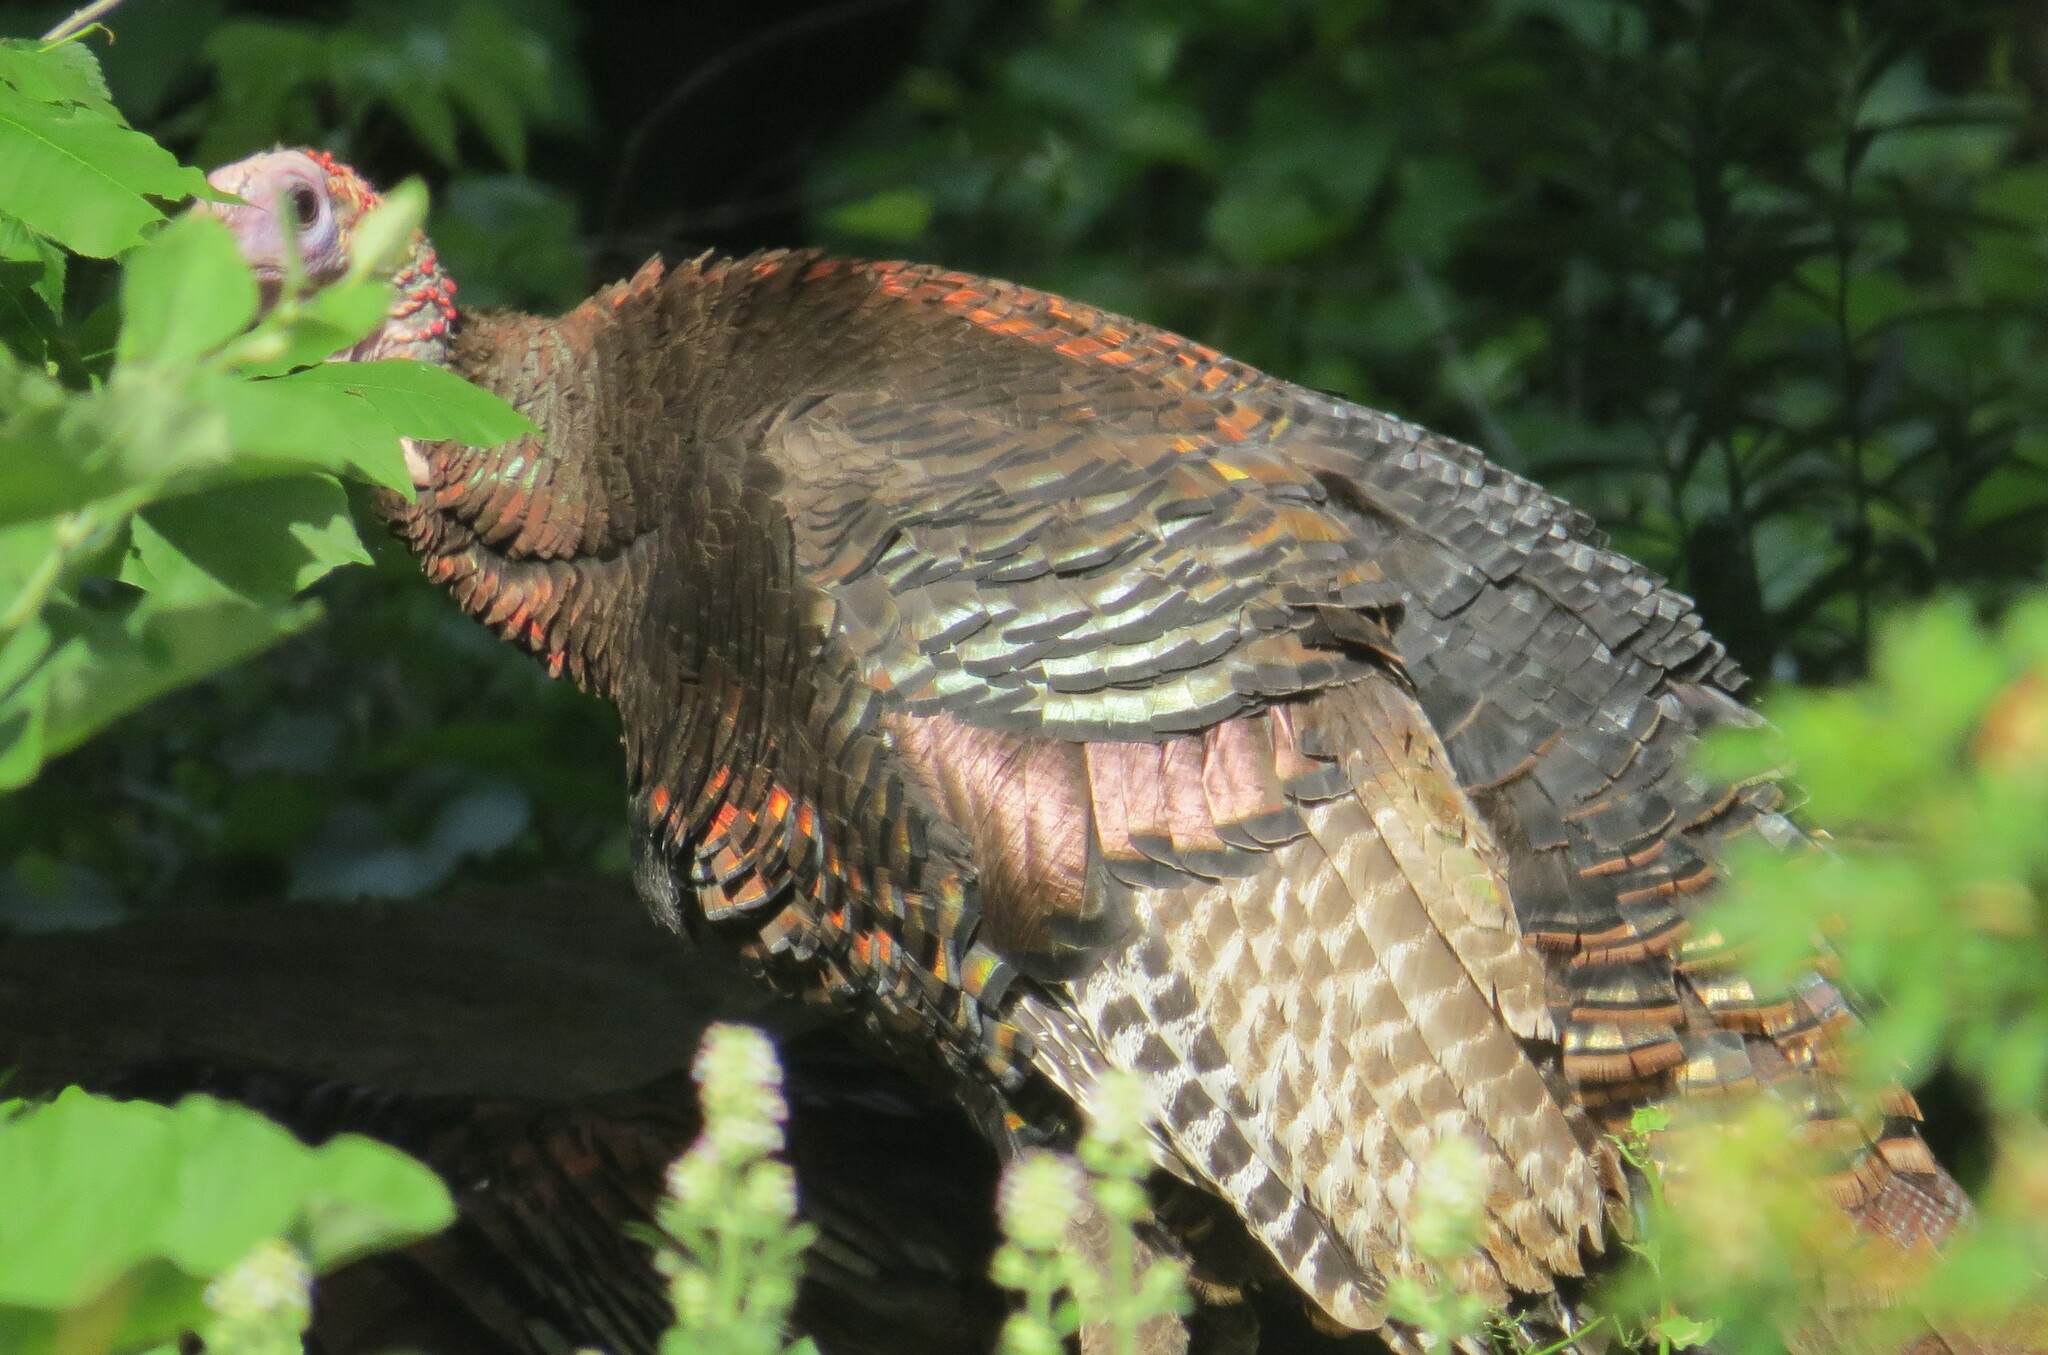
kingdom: Animalia
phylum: Chordata
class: Aves
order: Galliformes
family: Phasianidae
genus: Meleagris
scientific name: Meleagris gallopavo
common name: Wild turkey
